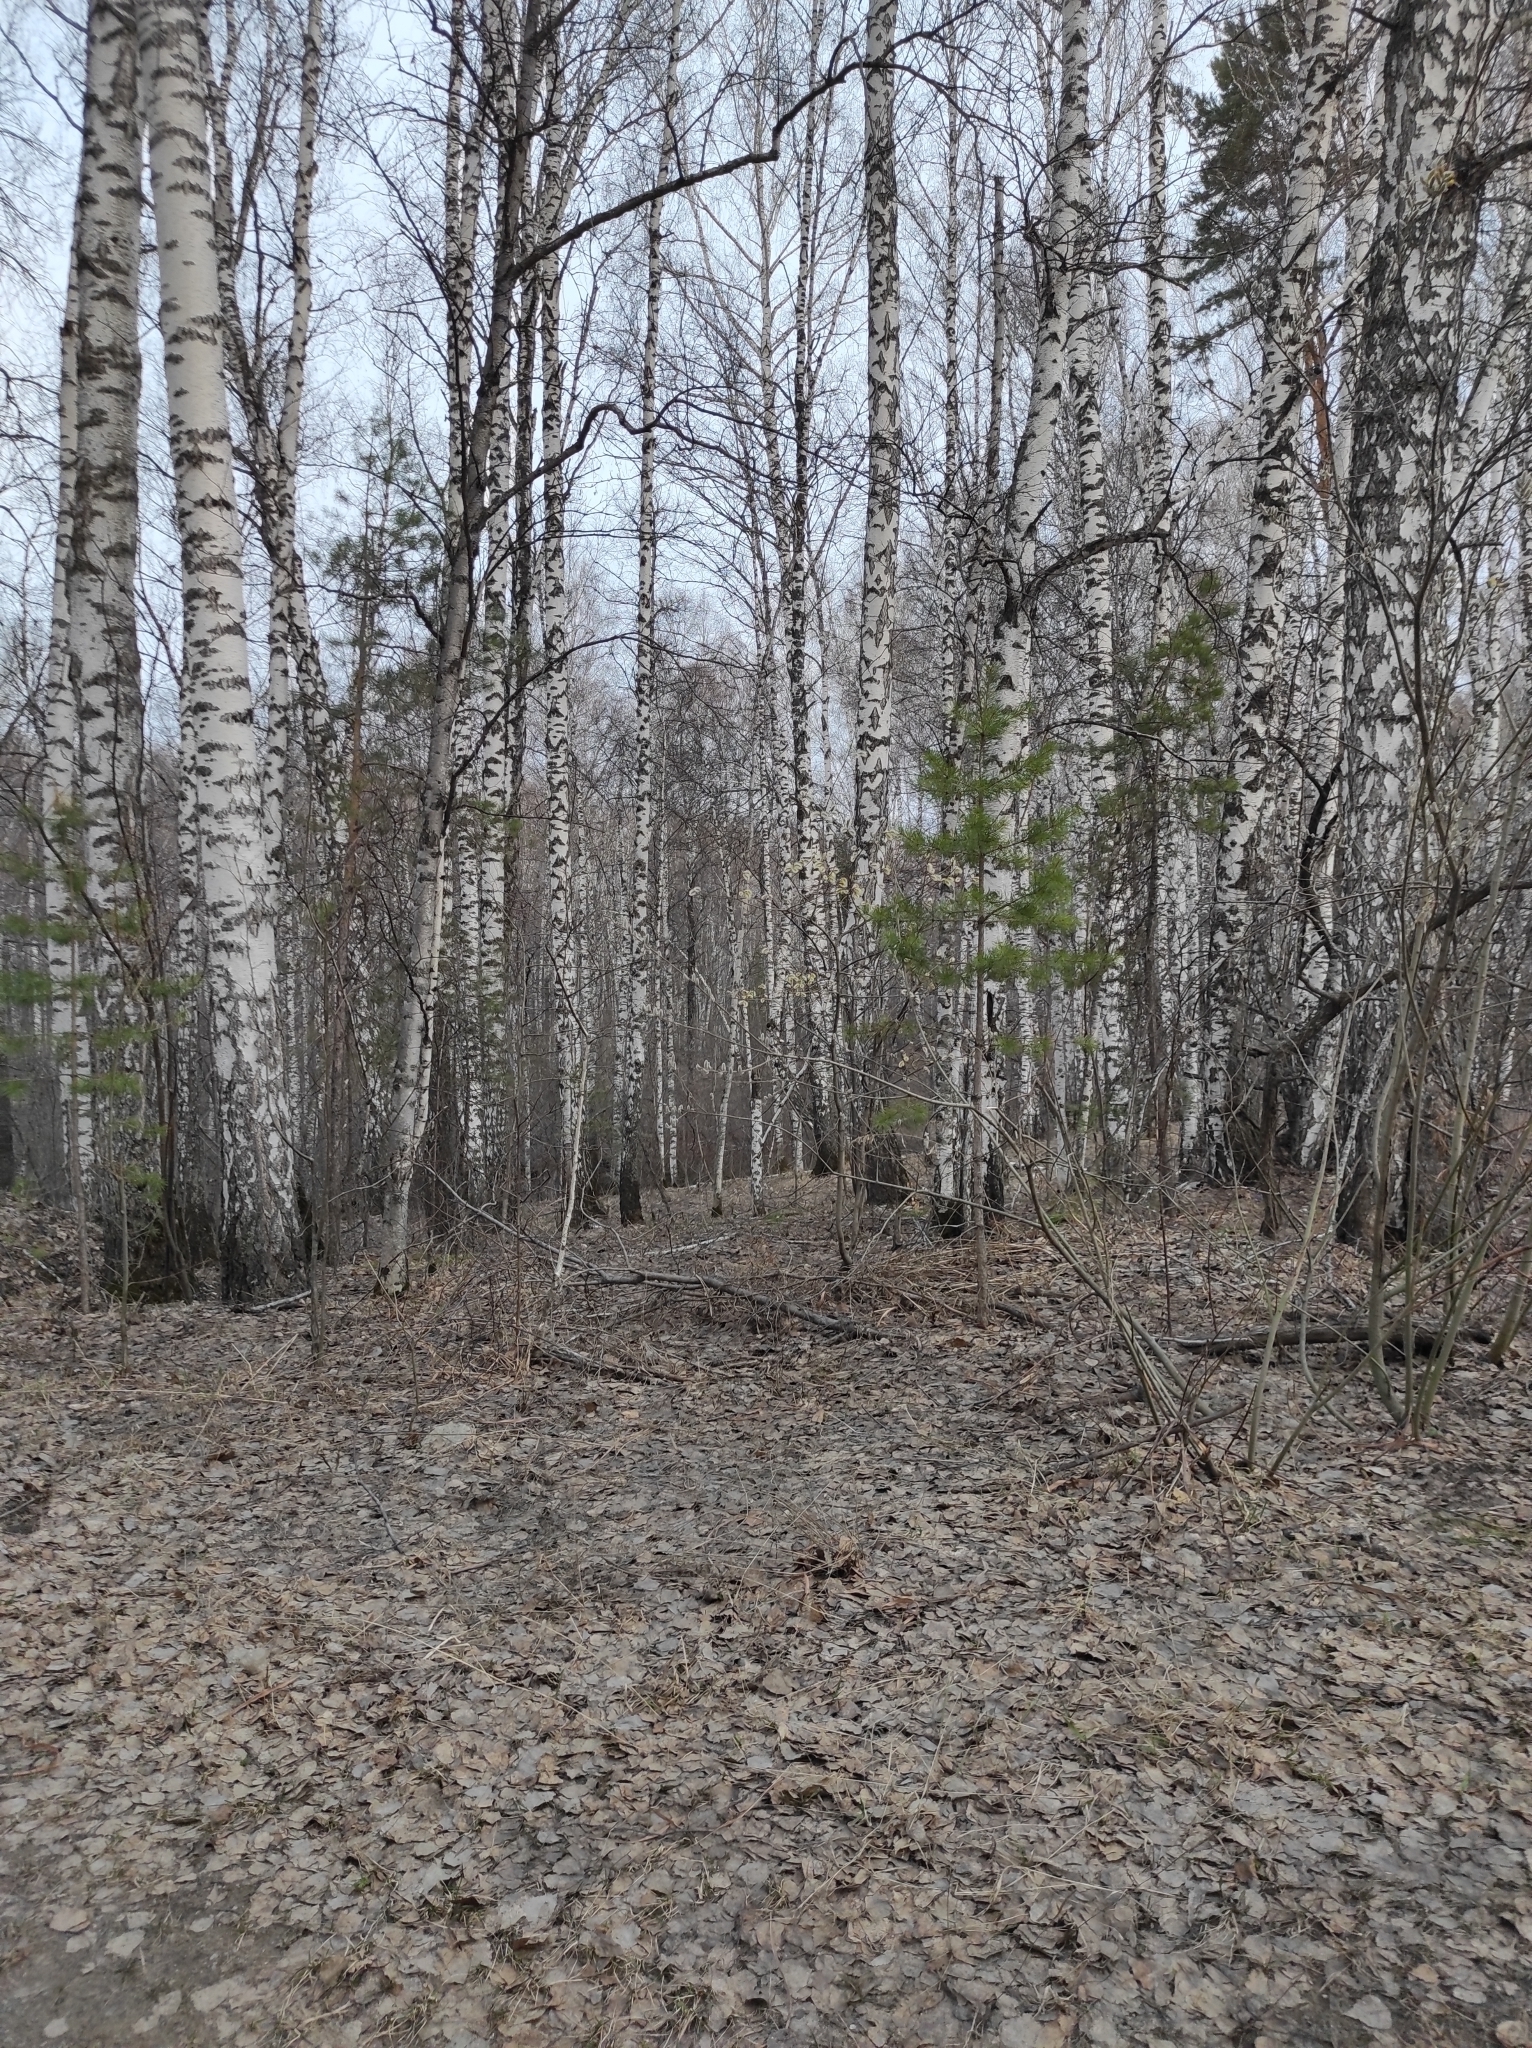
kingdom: Plantae
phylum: Tracheophyta
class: Pinopsida
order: Pinales
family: Pinaceae
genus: Pinus
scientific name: Pinus sylvestris
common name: Scots pine
